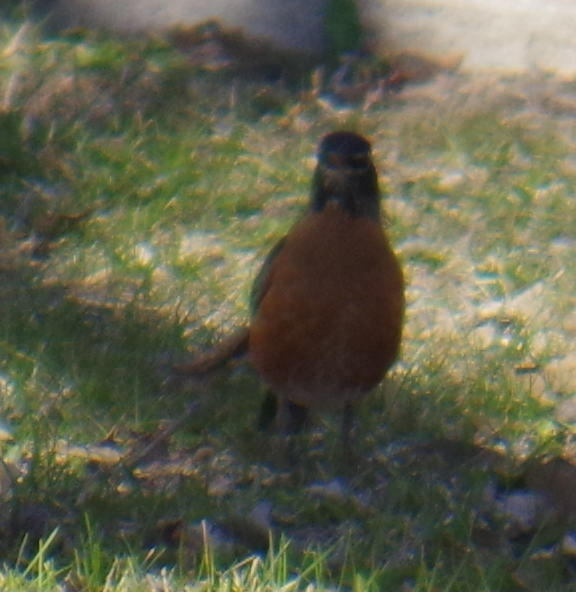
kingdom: Animalia
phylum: Chordata
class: Aves
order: Passeriformes
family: Turdidae
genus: Turdus
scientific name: Turdus migratorius
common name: American robin
